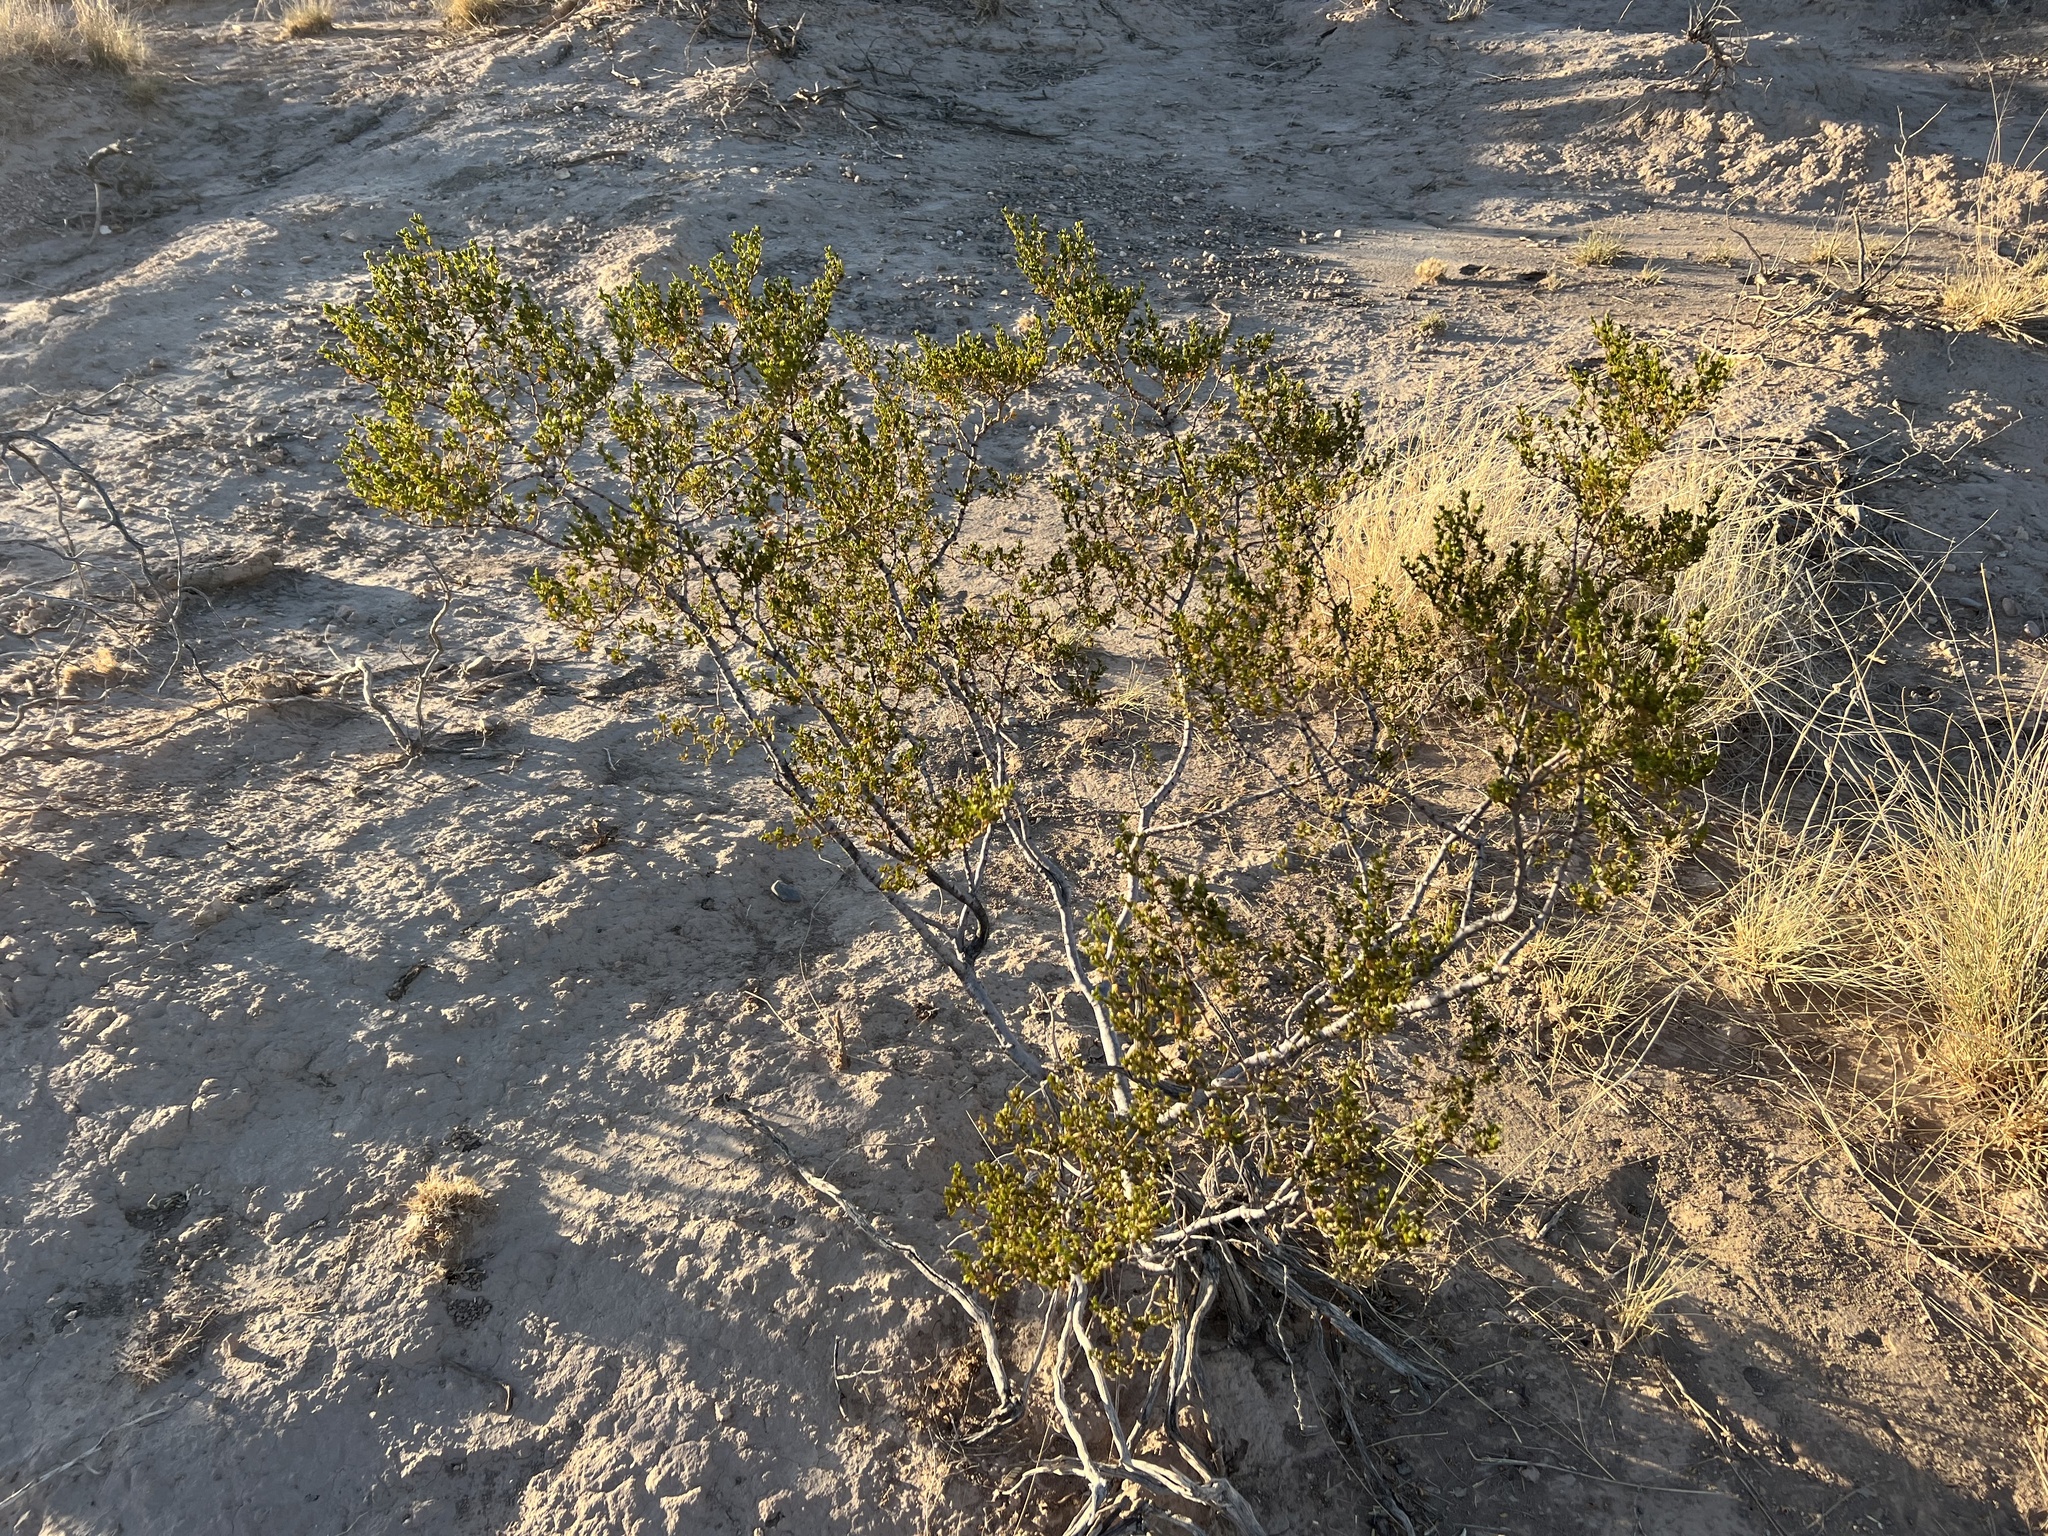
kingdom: Plantae
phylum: Tracheophyta
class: Magnoliopsida
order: Zygophyllales
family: Zygophyllaceae
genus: Larrea
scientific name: Larrea tridentata
